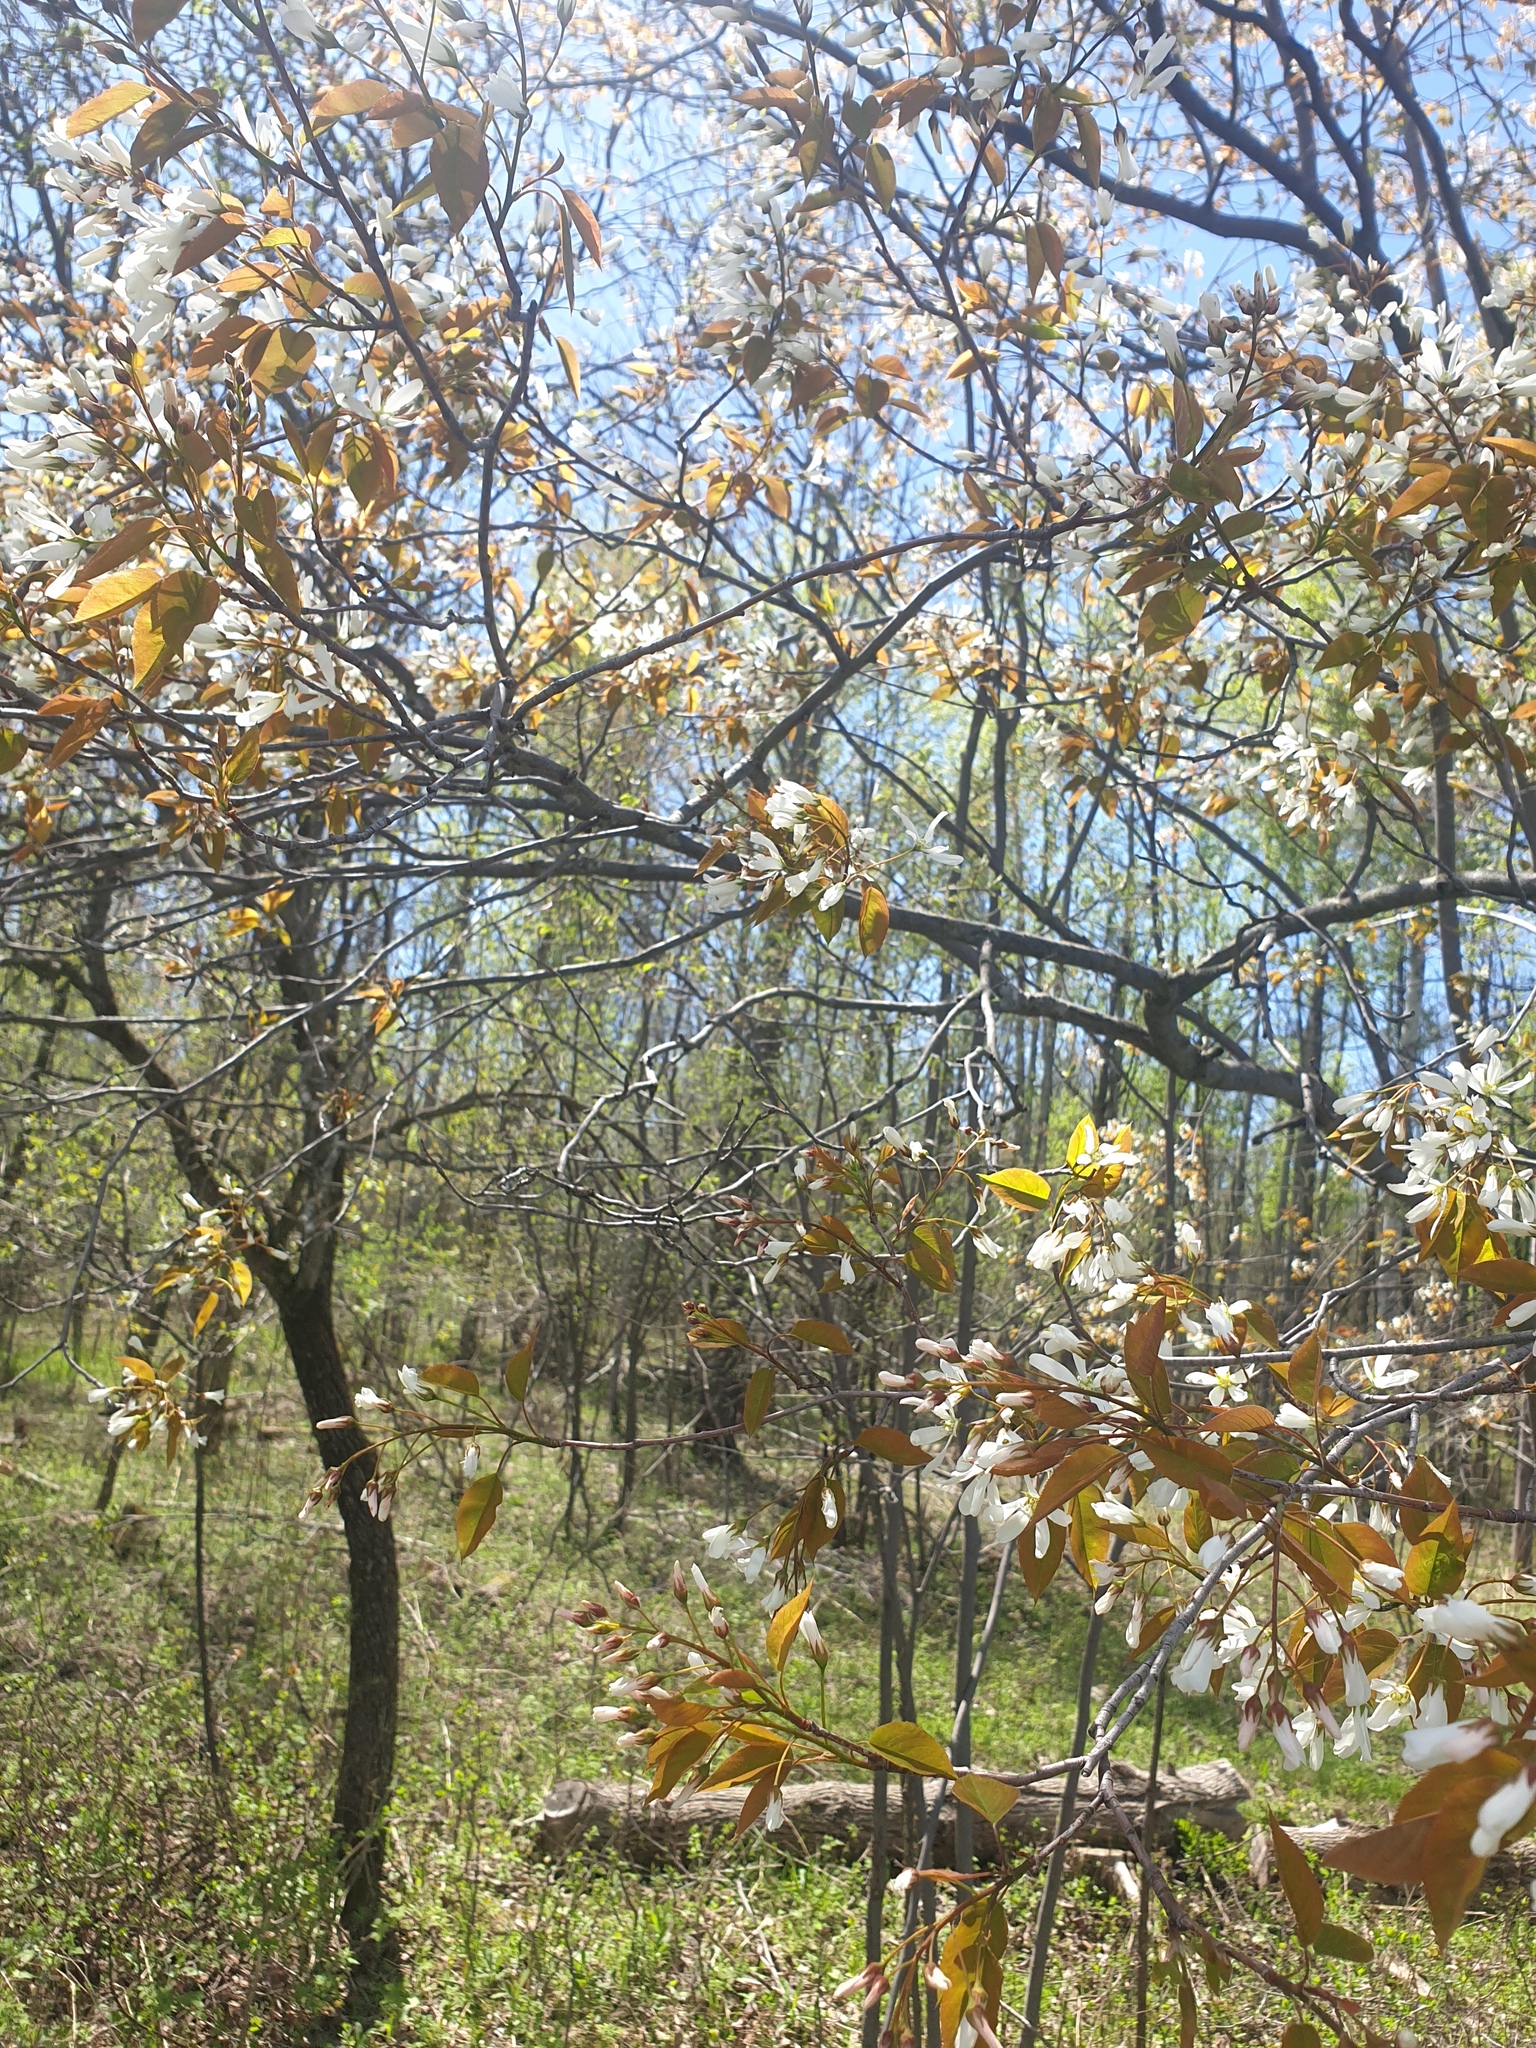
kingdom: Plantae
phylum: Tracheophyta
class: Magnoliopsida
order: Rosales
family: Rosaceae
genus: Amelanchier
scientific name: Amelanchier laevis
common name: Allegheny serviceberry
